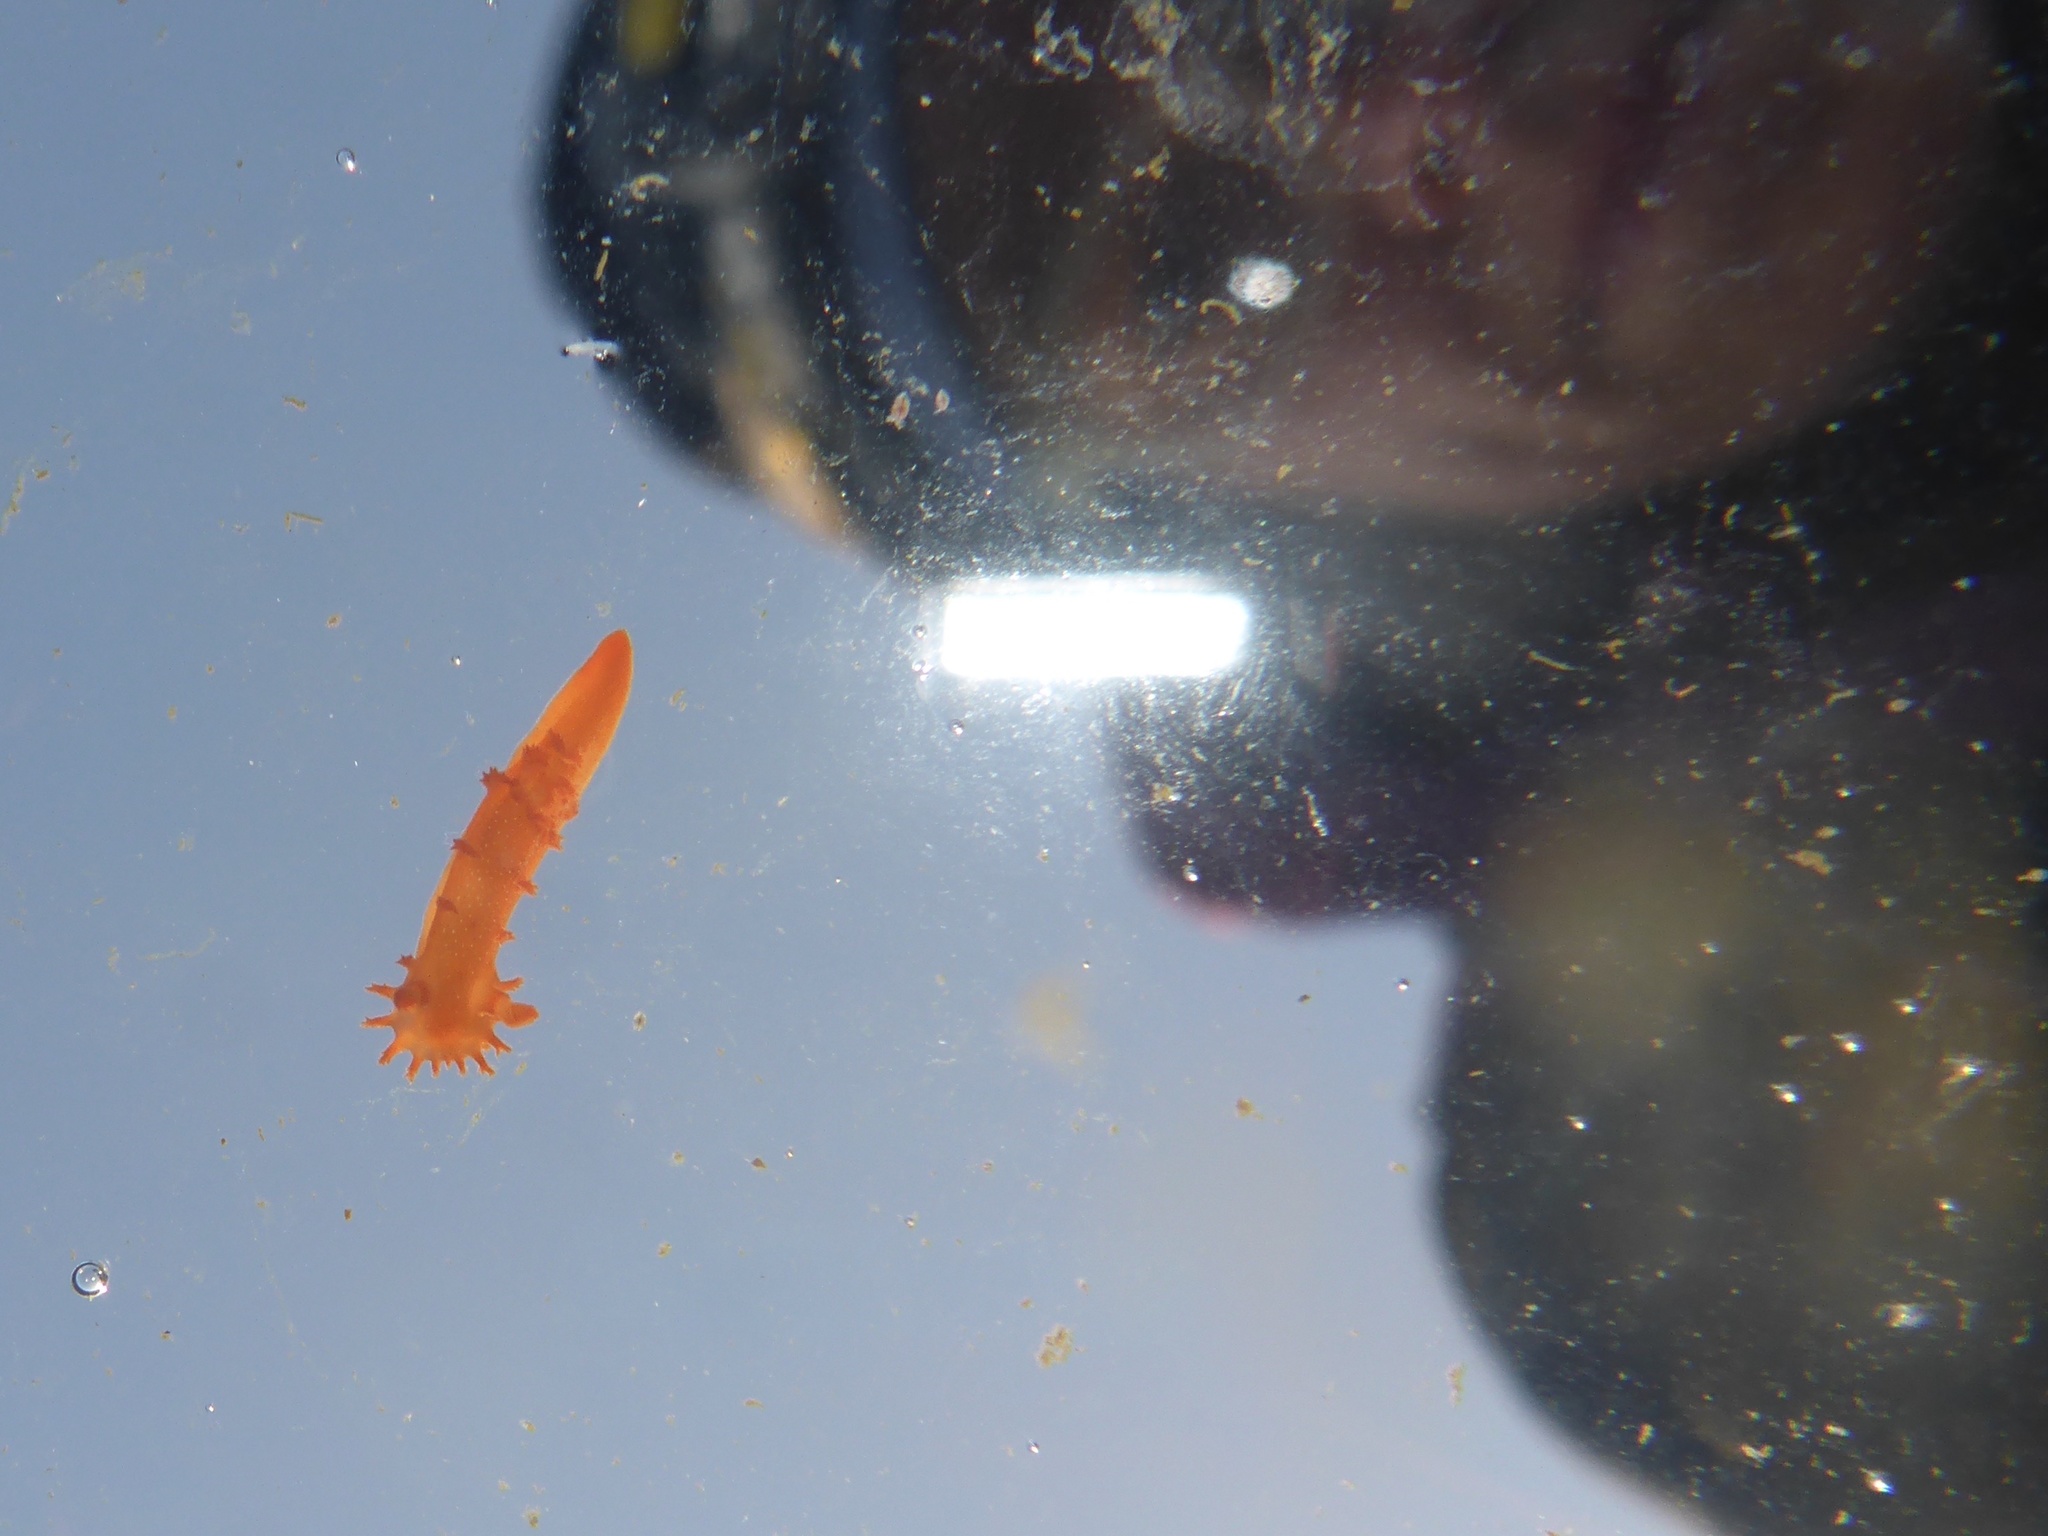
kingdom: Animalia
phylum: Mollusca
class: Gastropoda
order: Nudibranchia
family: Polyceridae
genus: Triopha
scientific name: Triopha maculata
